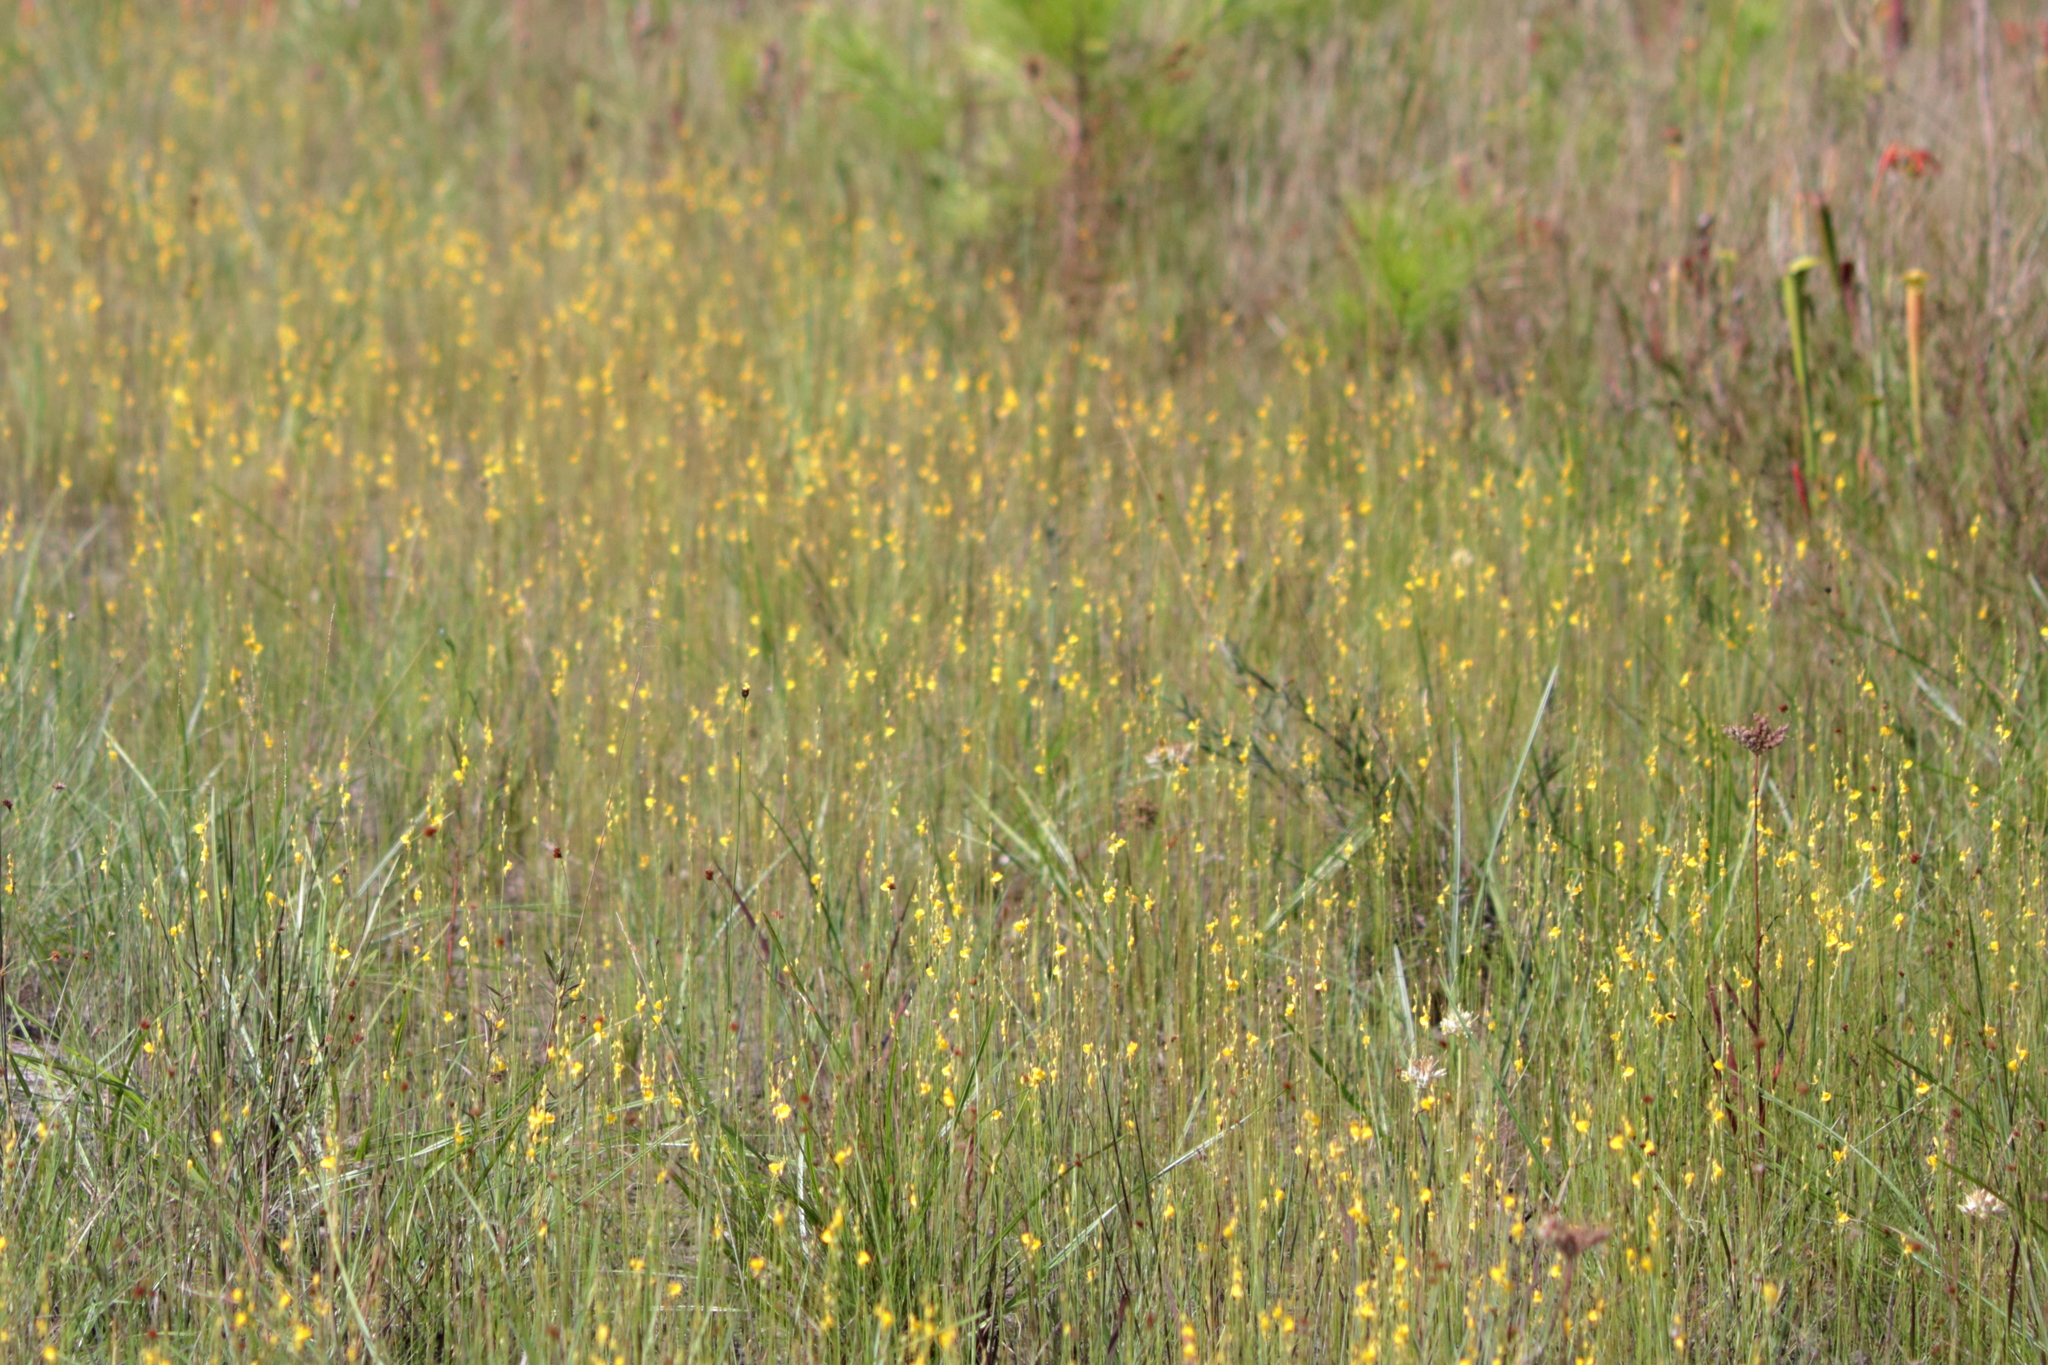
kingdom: Plantae
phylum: Tracheophyta
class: Magnoliopsida
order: Lamiales
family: Lentibulariaceae
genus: Utricularia
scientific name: Utricularia juncea
